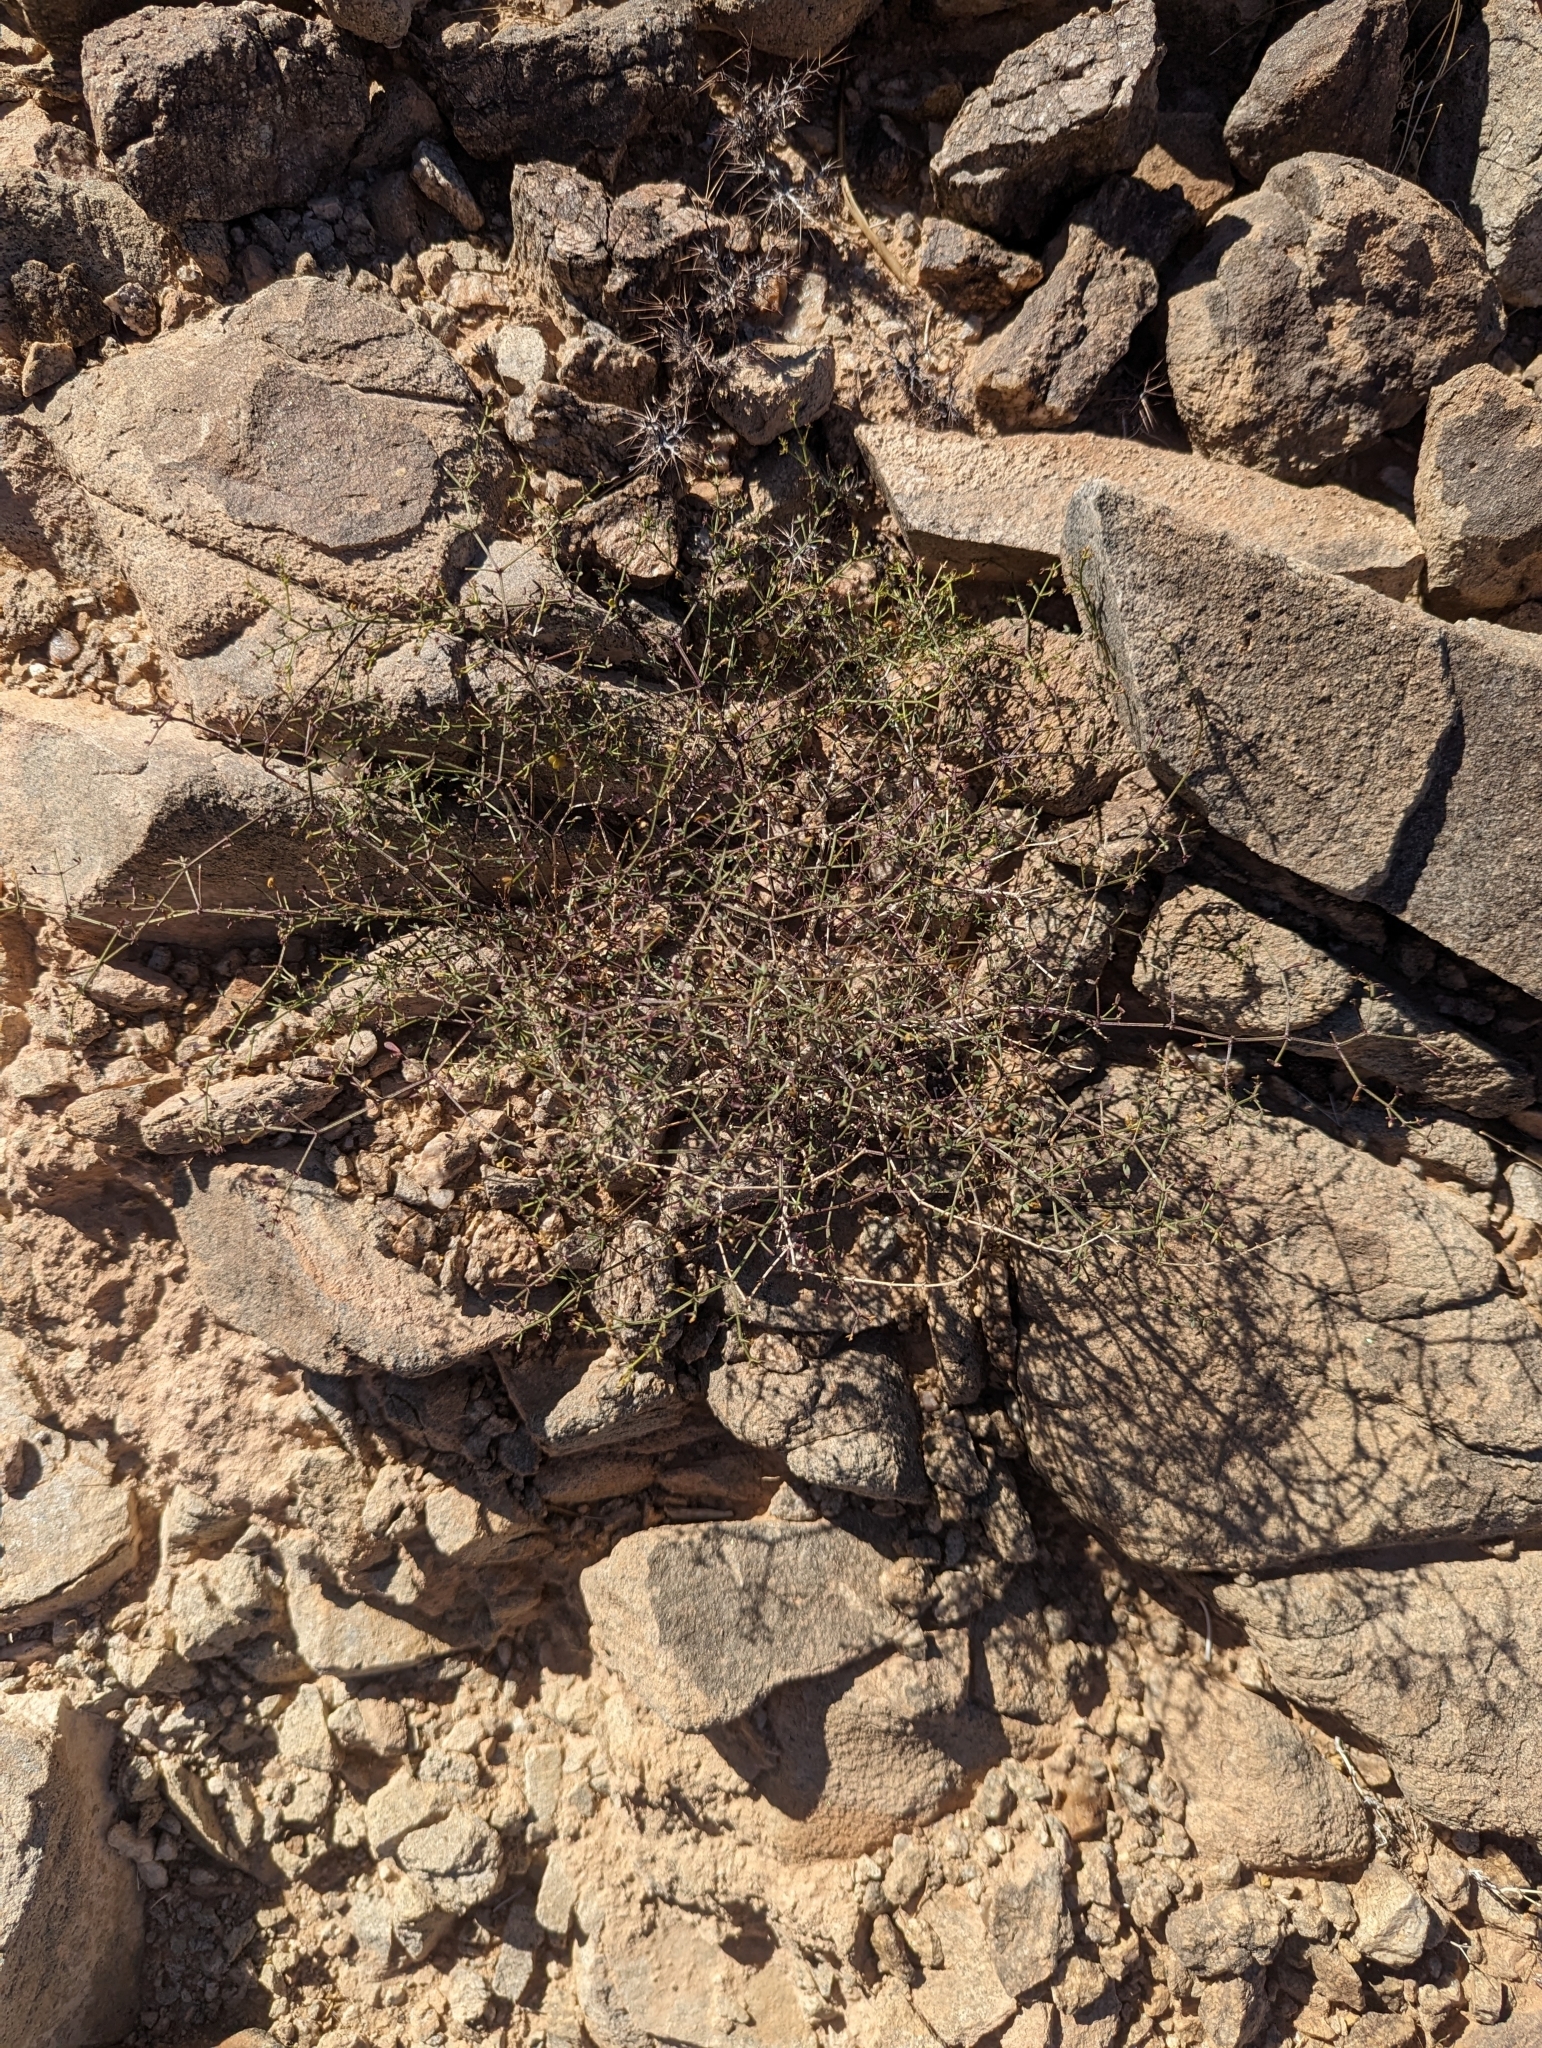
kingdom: Plantae
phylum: Tracheophyta
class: Magnoliopsida
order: Zygophyllales
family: Zygophyllaceae
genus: Fagonia
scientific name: Fagonia laevis
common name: California fagonbush
